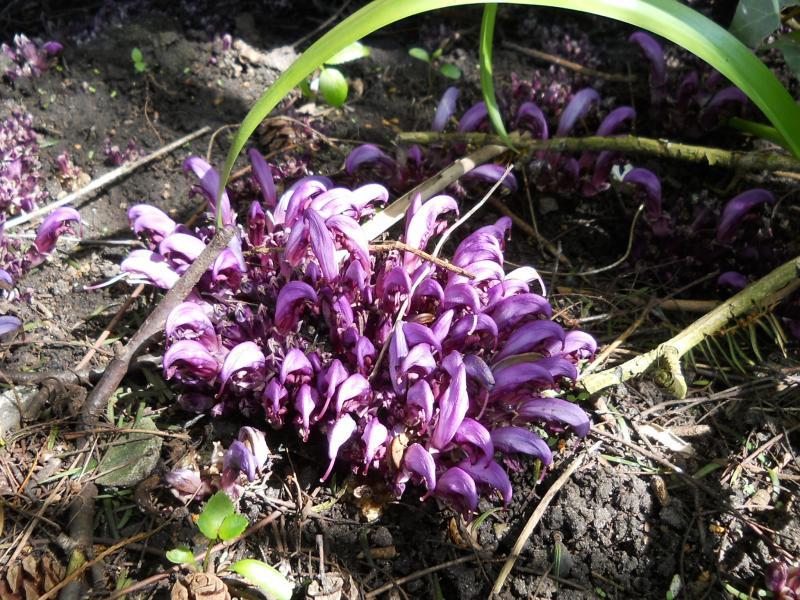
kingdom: Plantae
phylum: Tracheophyta
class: Magnoliopsida
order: Lamiales
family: Orobanchaceae
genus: Lathraea
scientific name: Lathraea clandestina
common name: Purple toothwort
